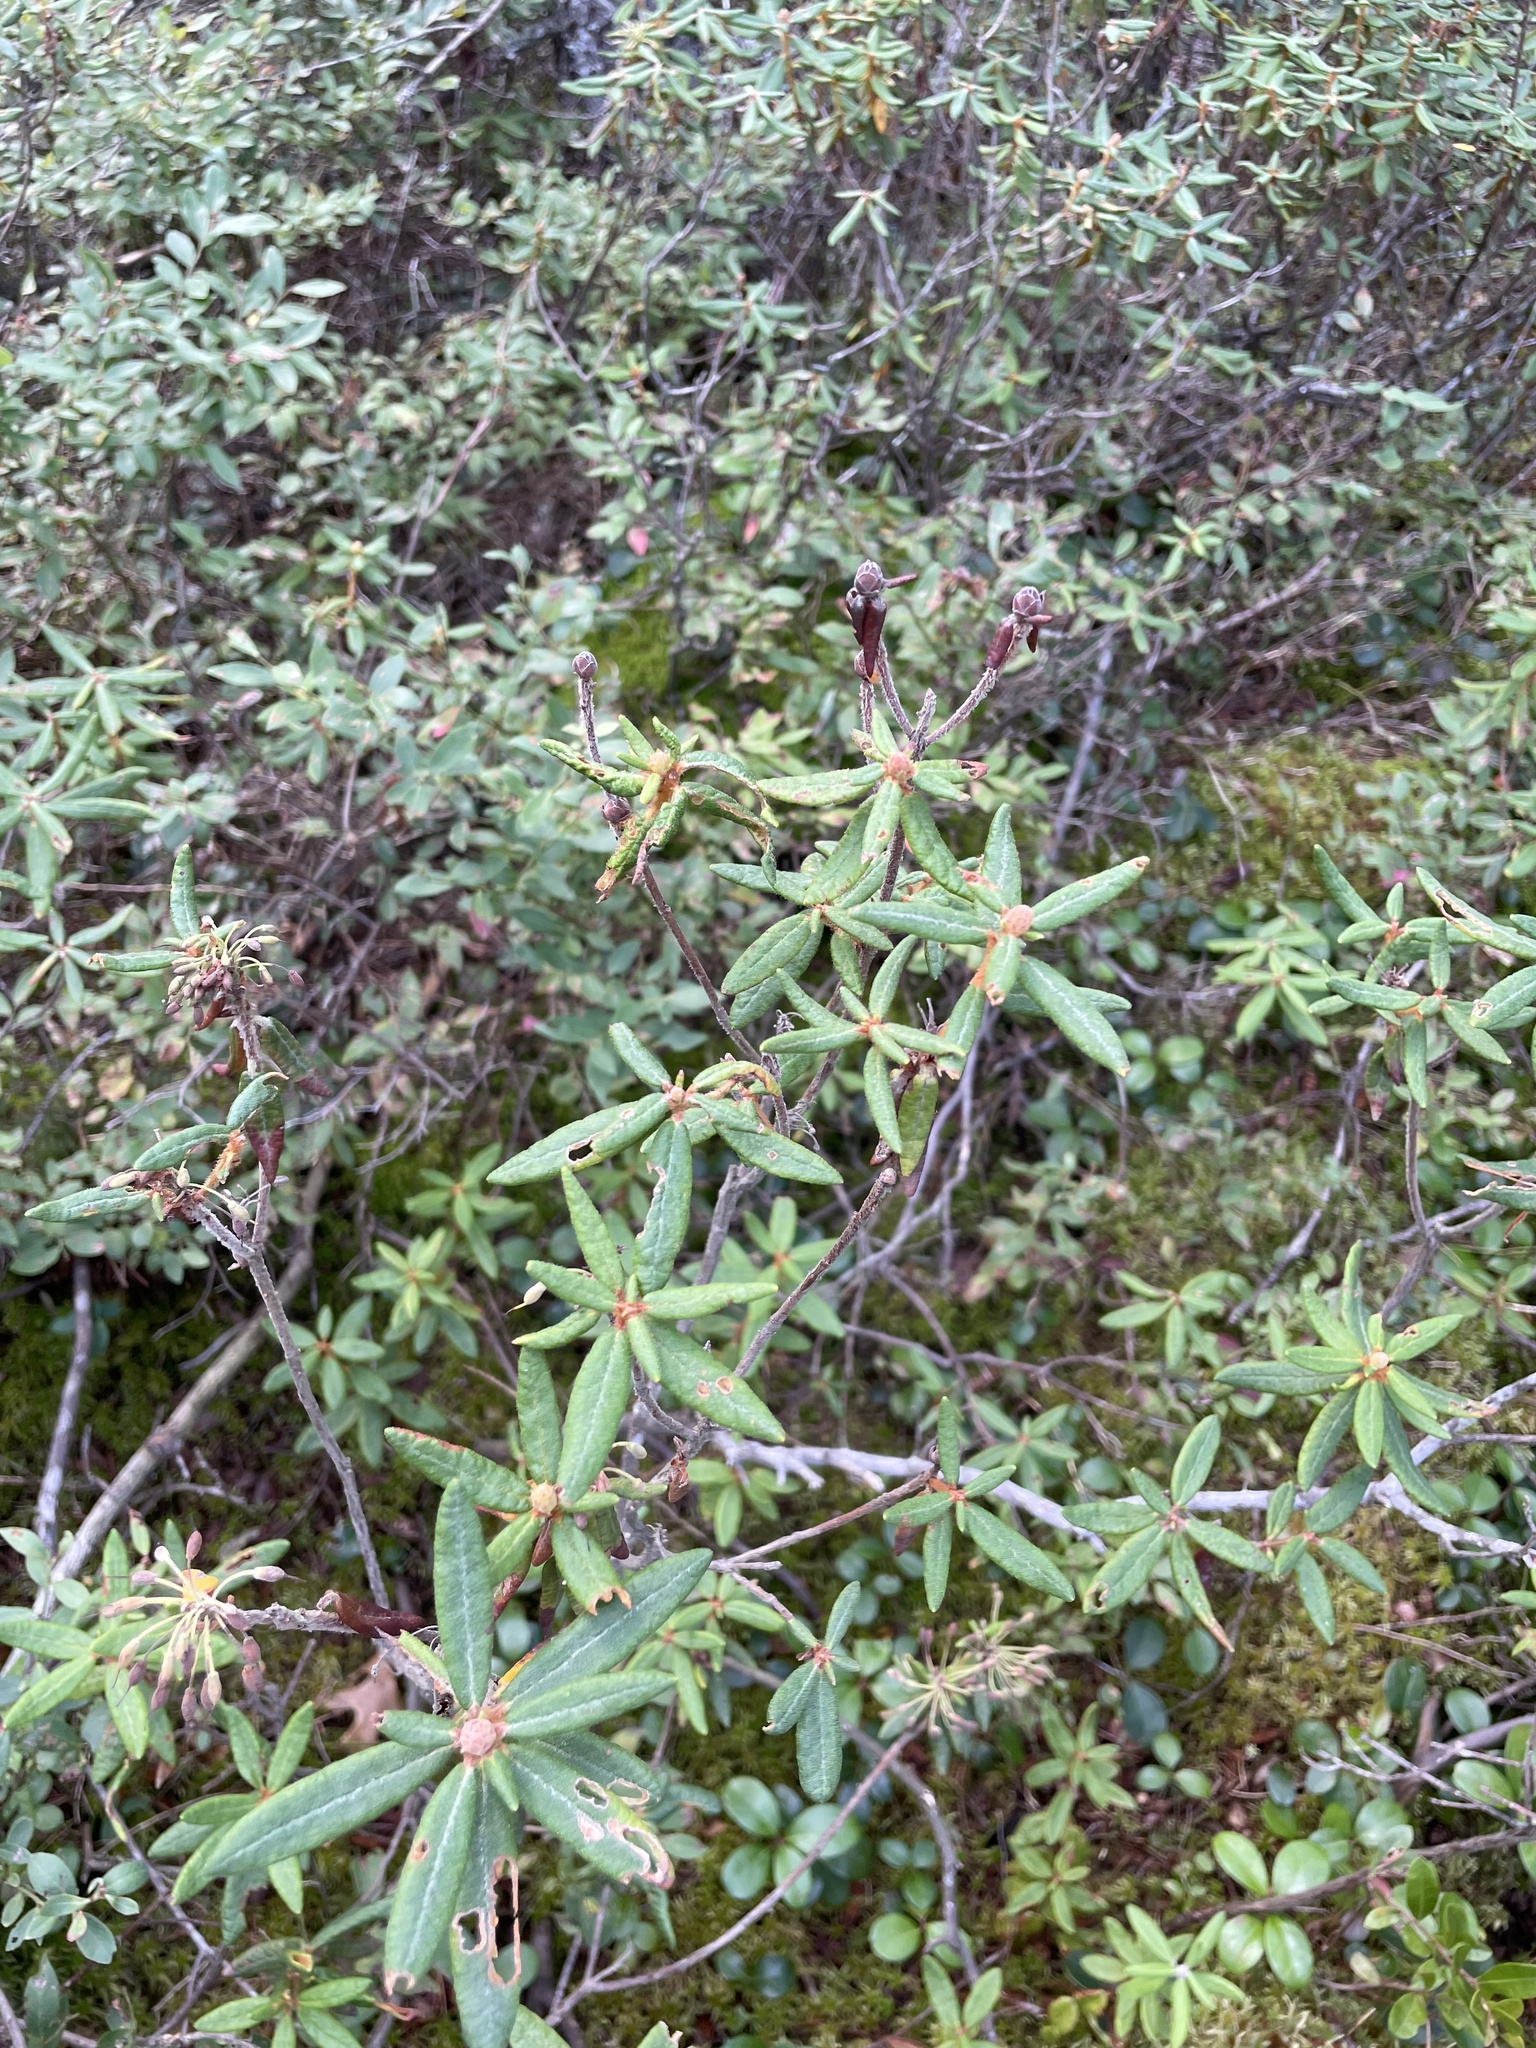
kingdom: Plantae
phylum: Tracheophyta
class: Magnoliopsida
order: Ericales
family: Ericaceae
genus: Rhododendron
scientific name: Rhododendron groenlandicum
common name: Bog labrador tea
